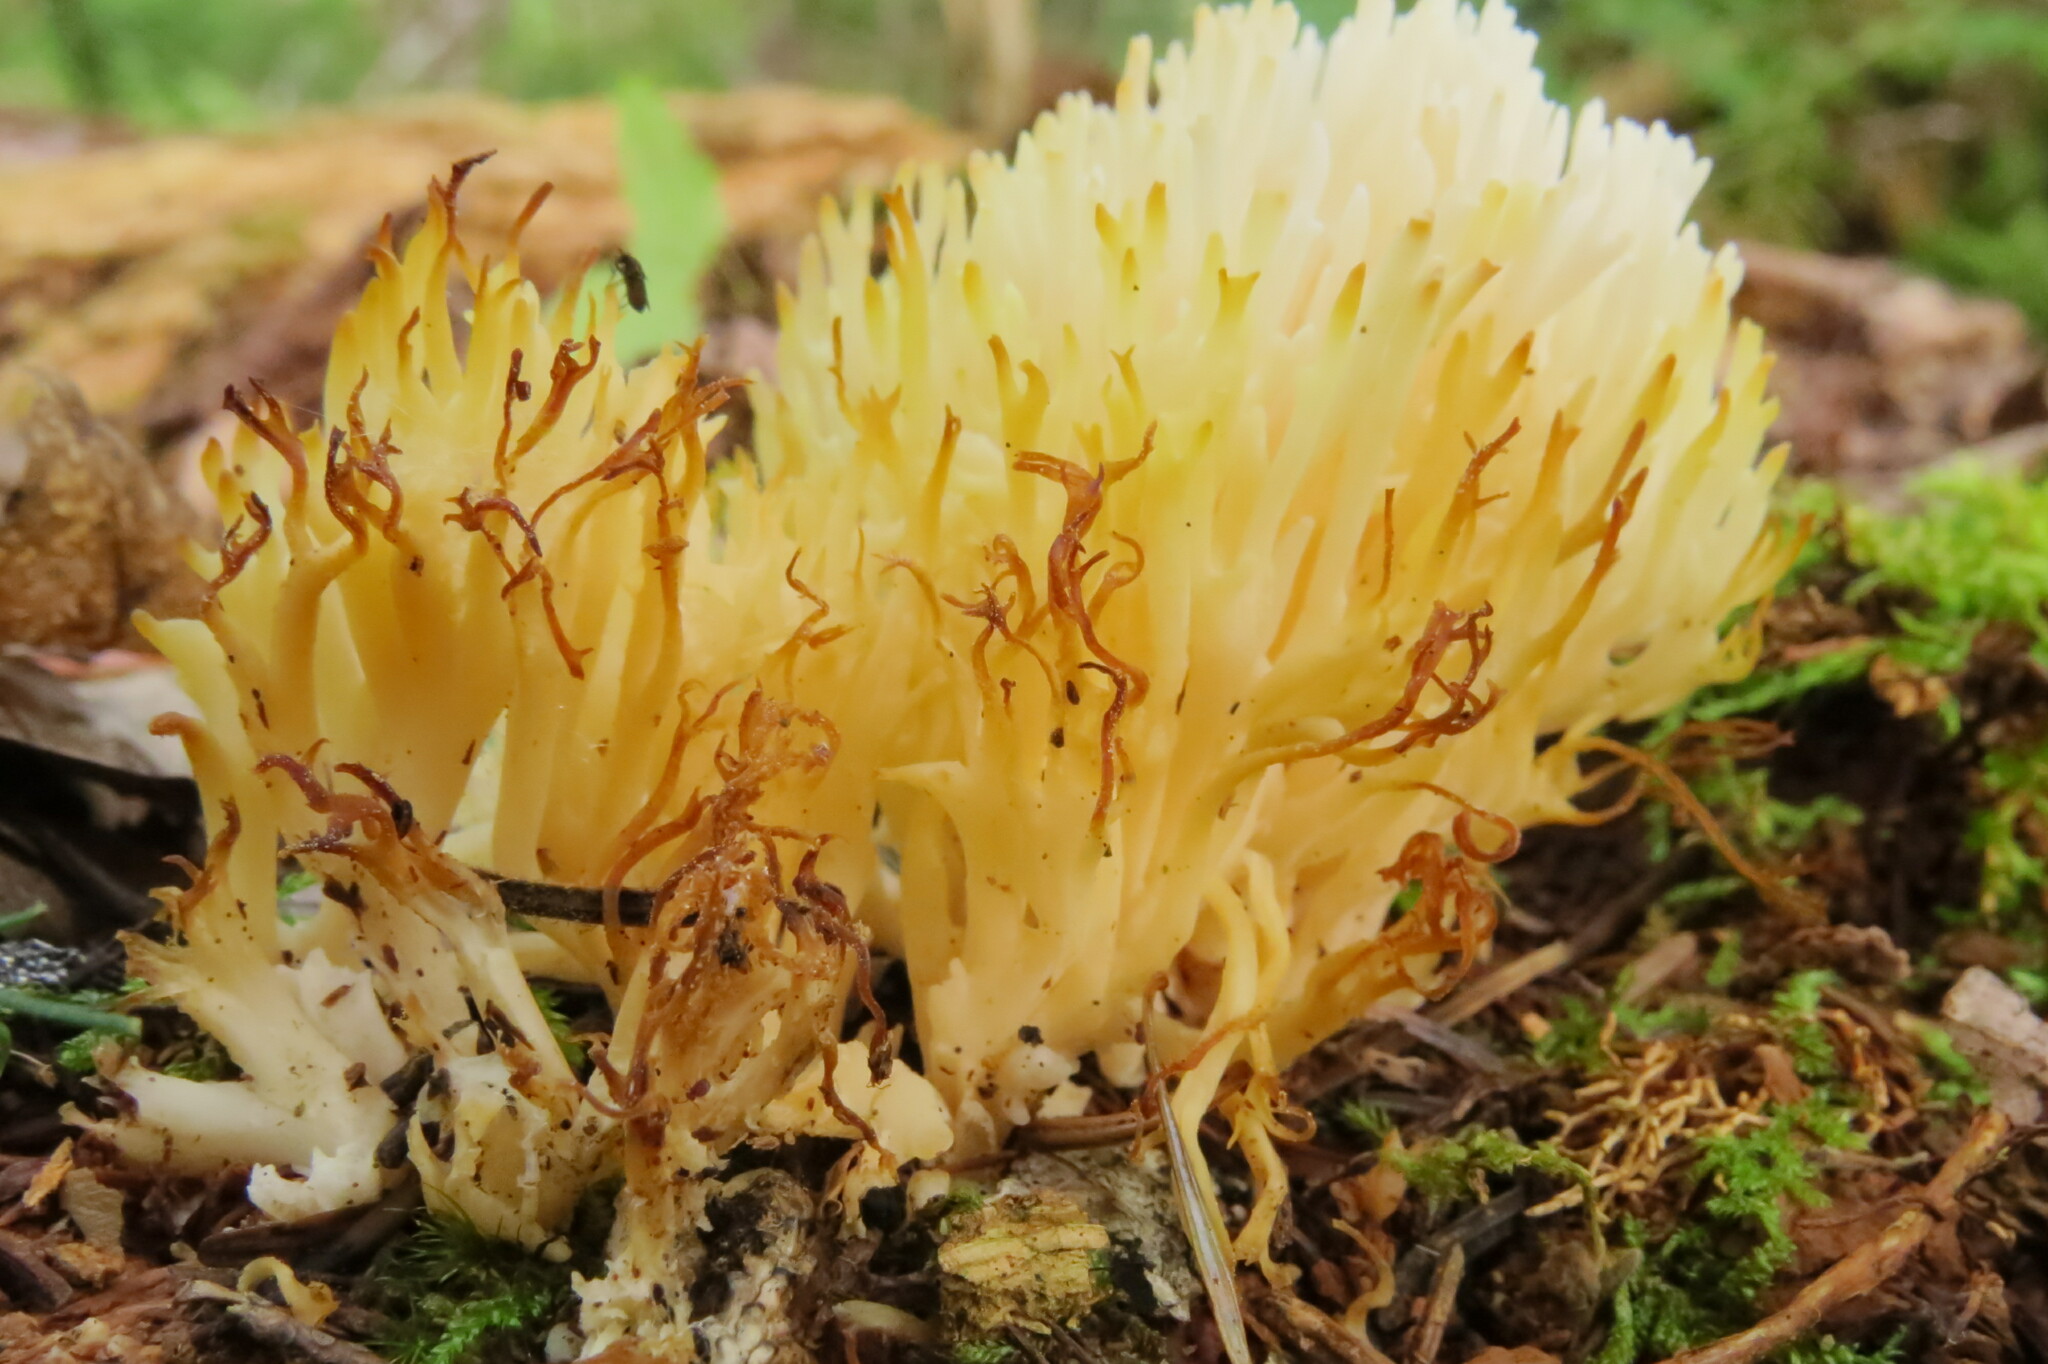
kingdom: Fungi
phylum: Basidiomycota
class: Agaricomycetes
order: Agaricales
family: Clavariaceae
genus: Ramariopsis
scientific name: Ramariopsis kunzei
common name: Ivory coral
